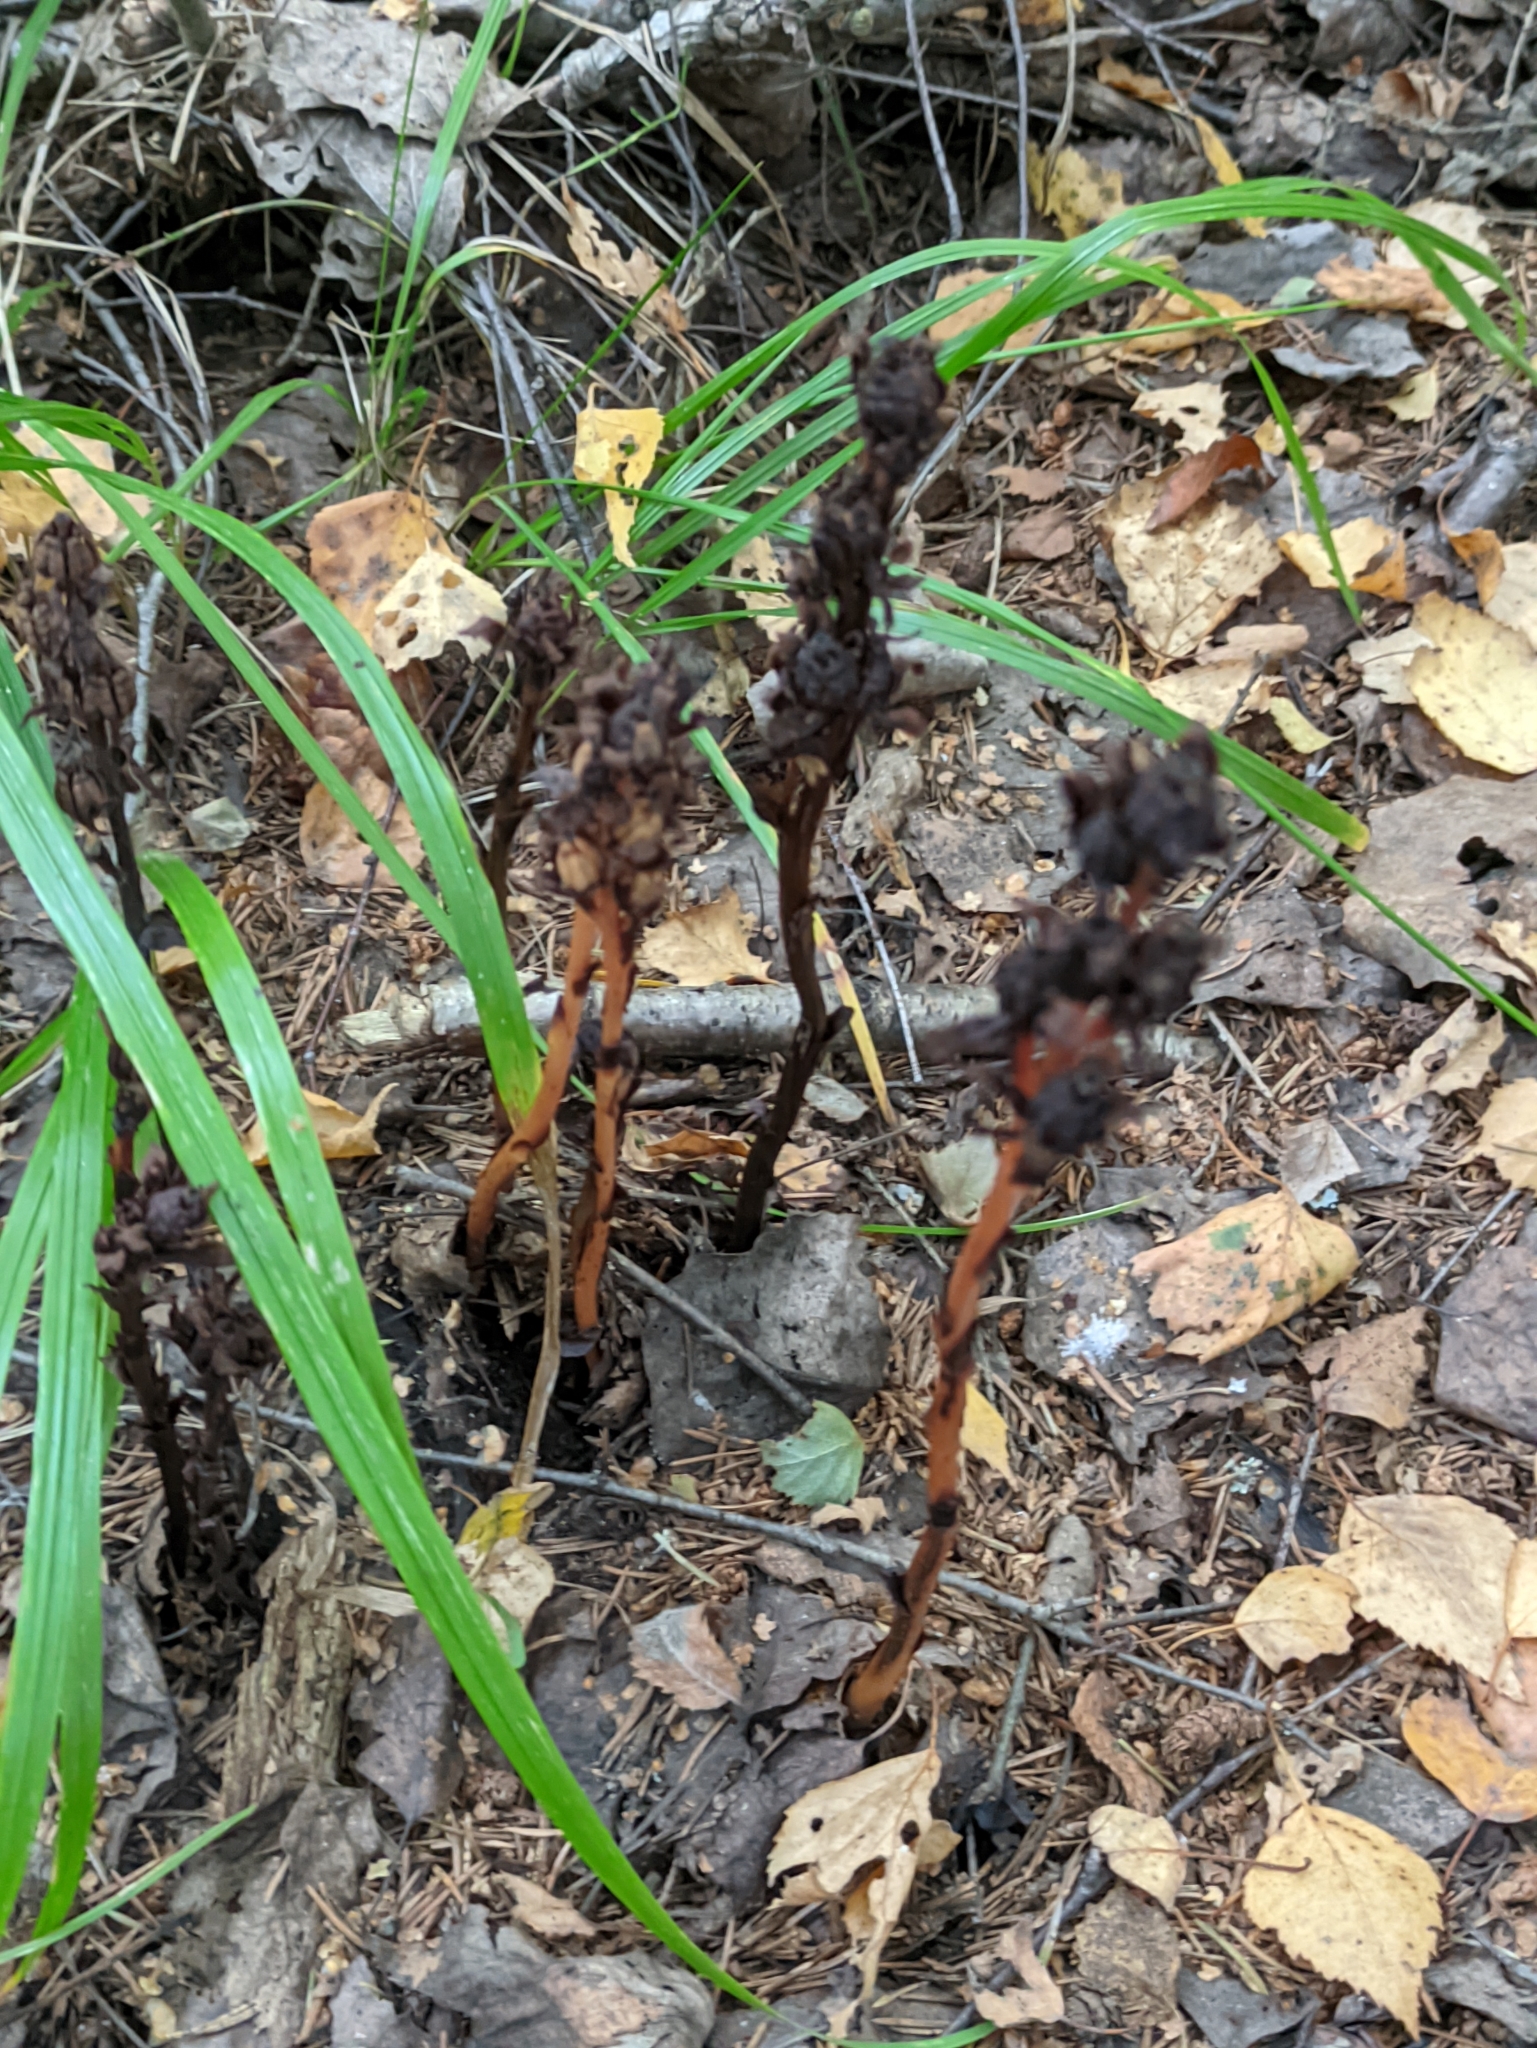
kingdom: Plantae
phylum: Tracheophyta
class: Magnoliopsida
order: Ericales
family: Ericaceae
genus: Hypopitys
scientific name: Hypopitys monotropa
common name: Yellow bird's-nest
